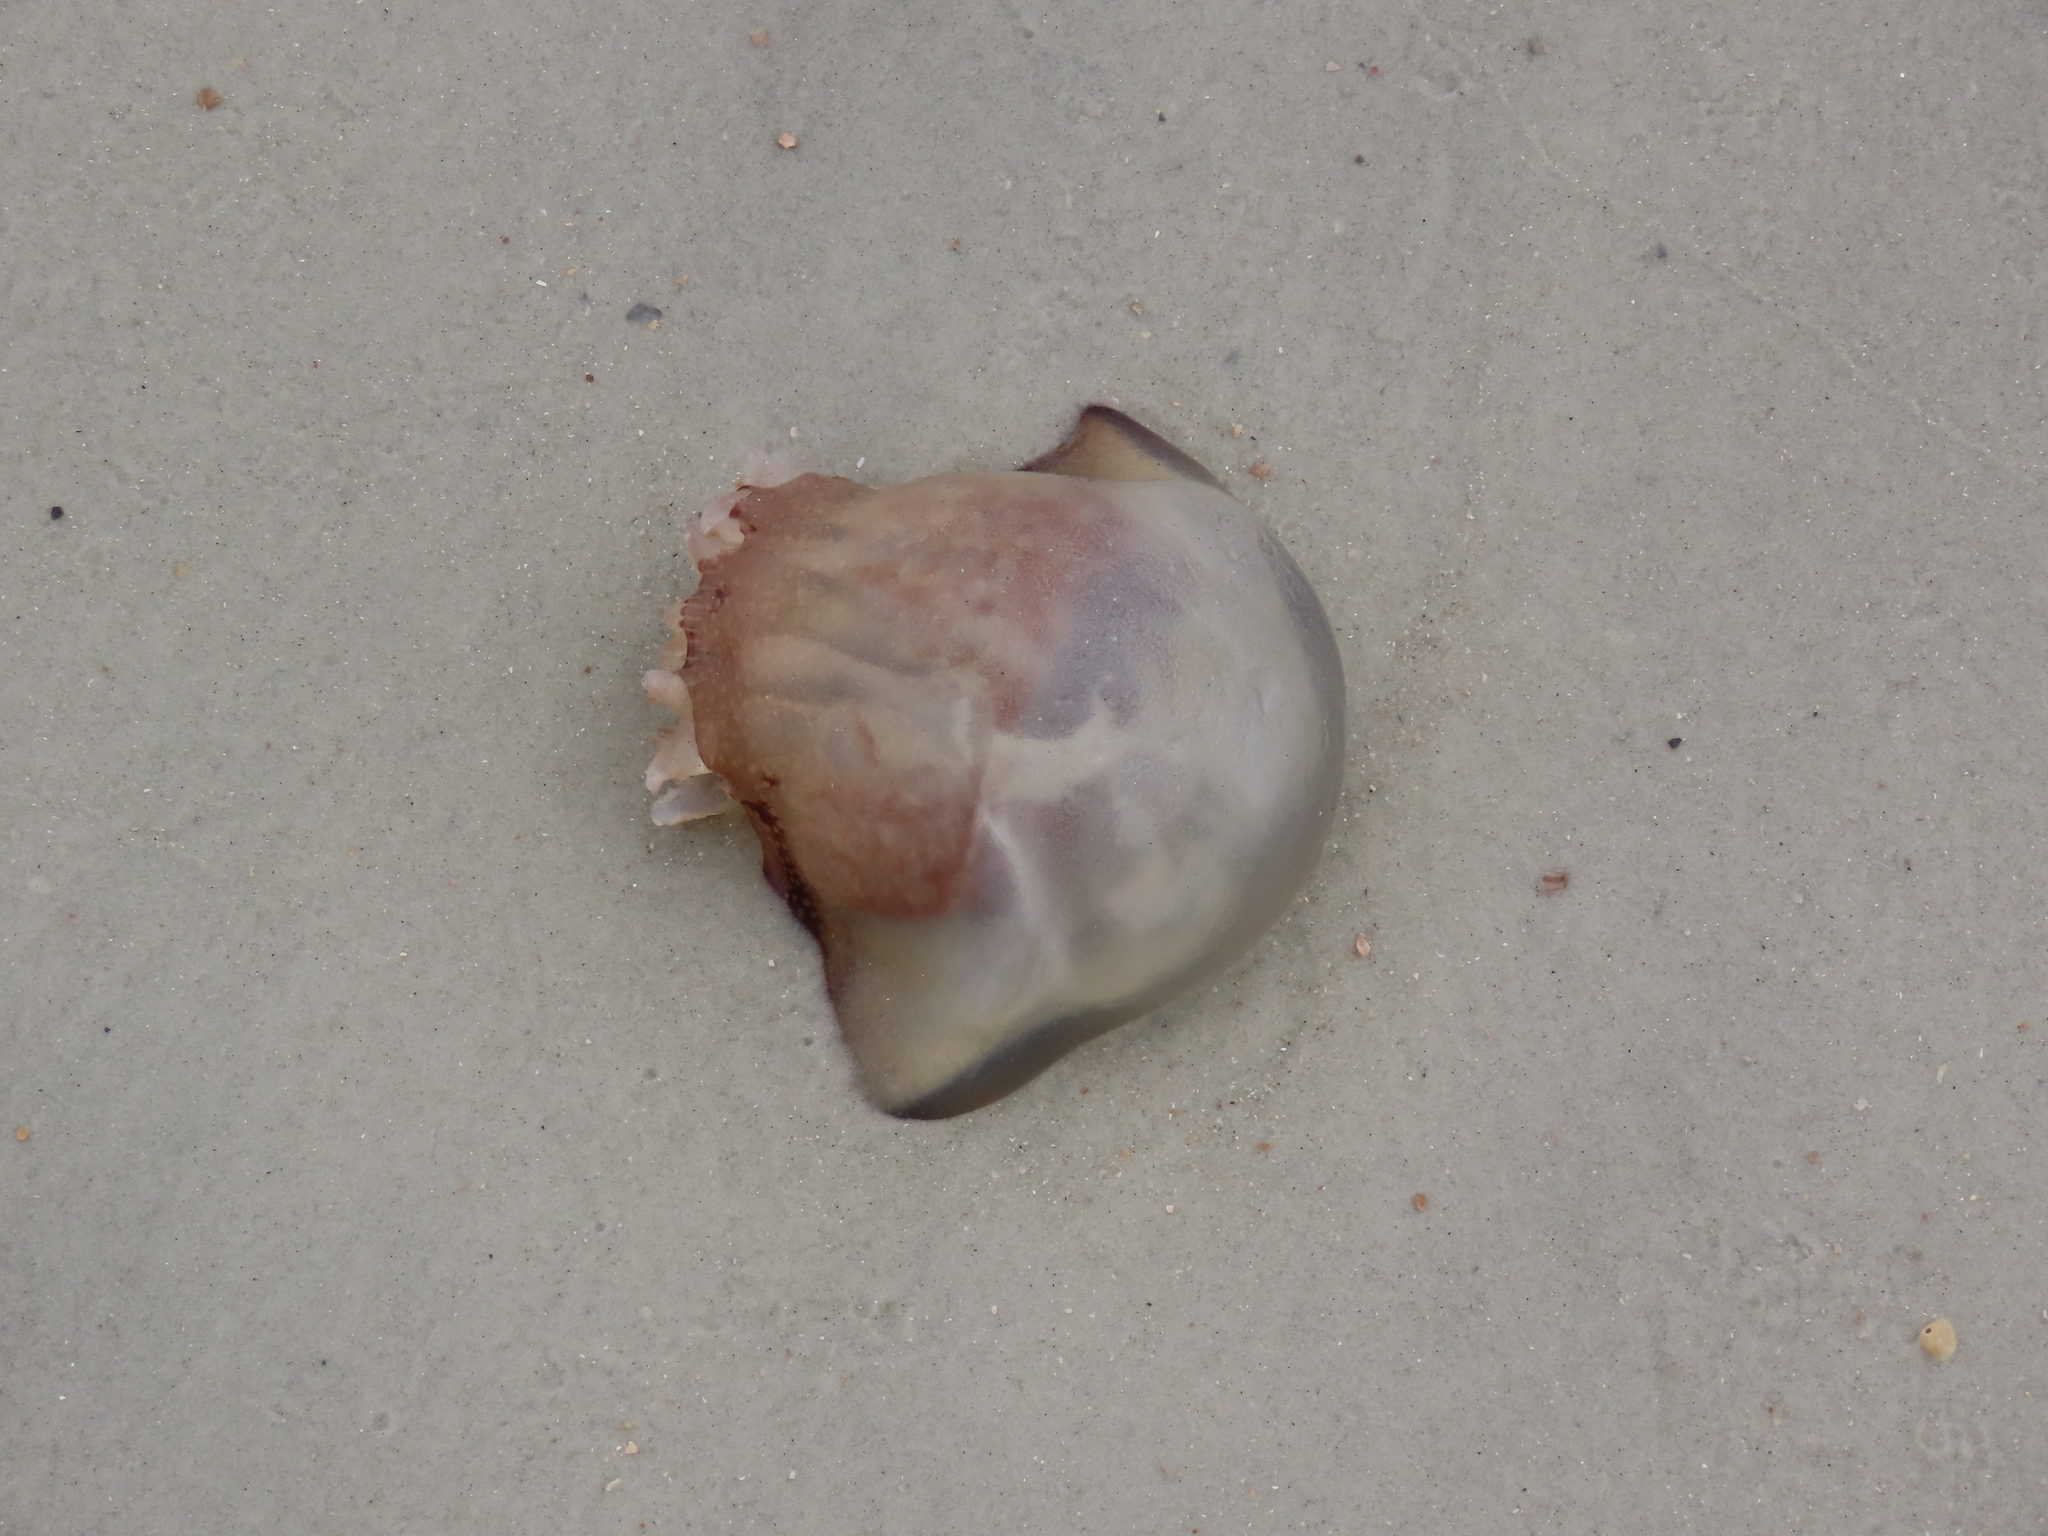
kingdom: Animalia
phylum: Cnidaria
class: Scyphozoa
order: Rhizostomeae
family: Stomolophidae
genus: Stomolophus
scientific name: Stomolophus meleagris
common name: Cabbagehead
